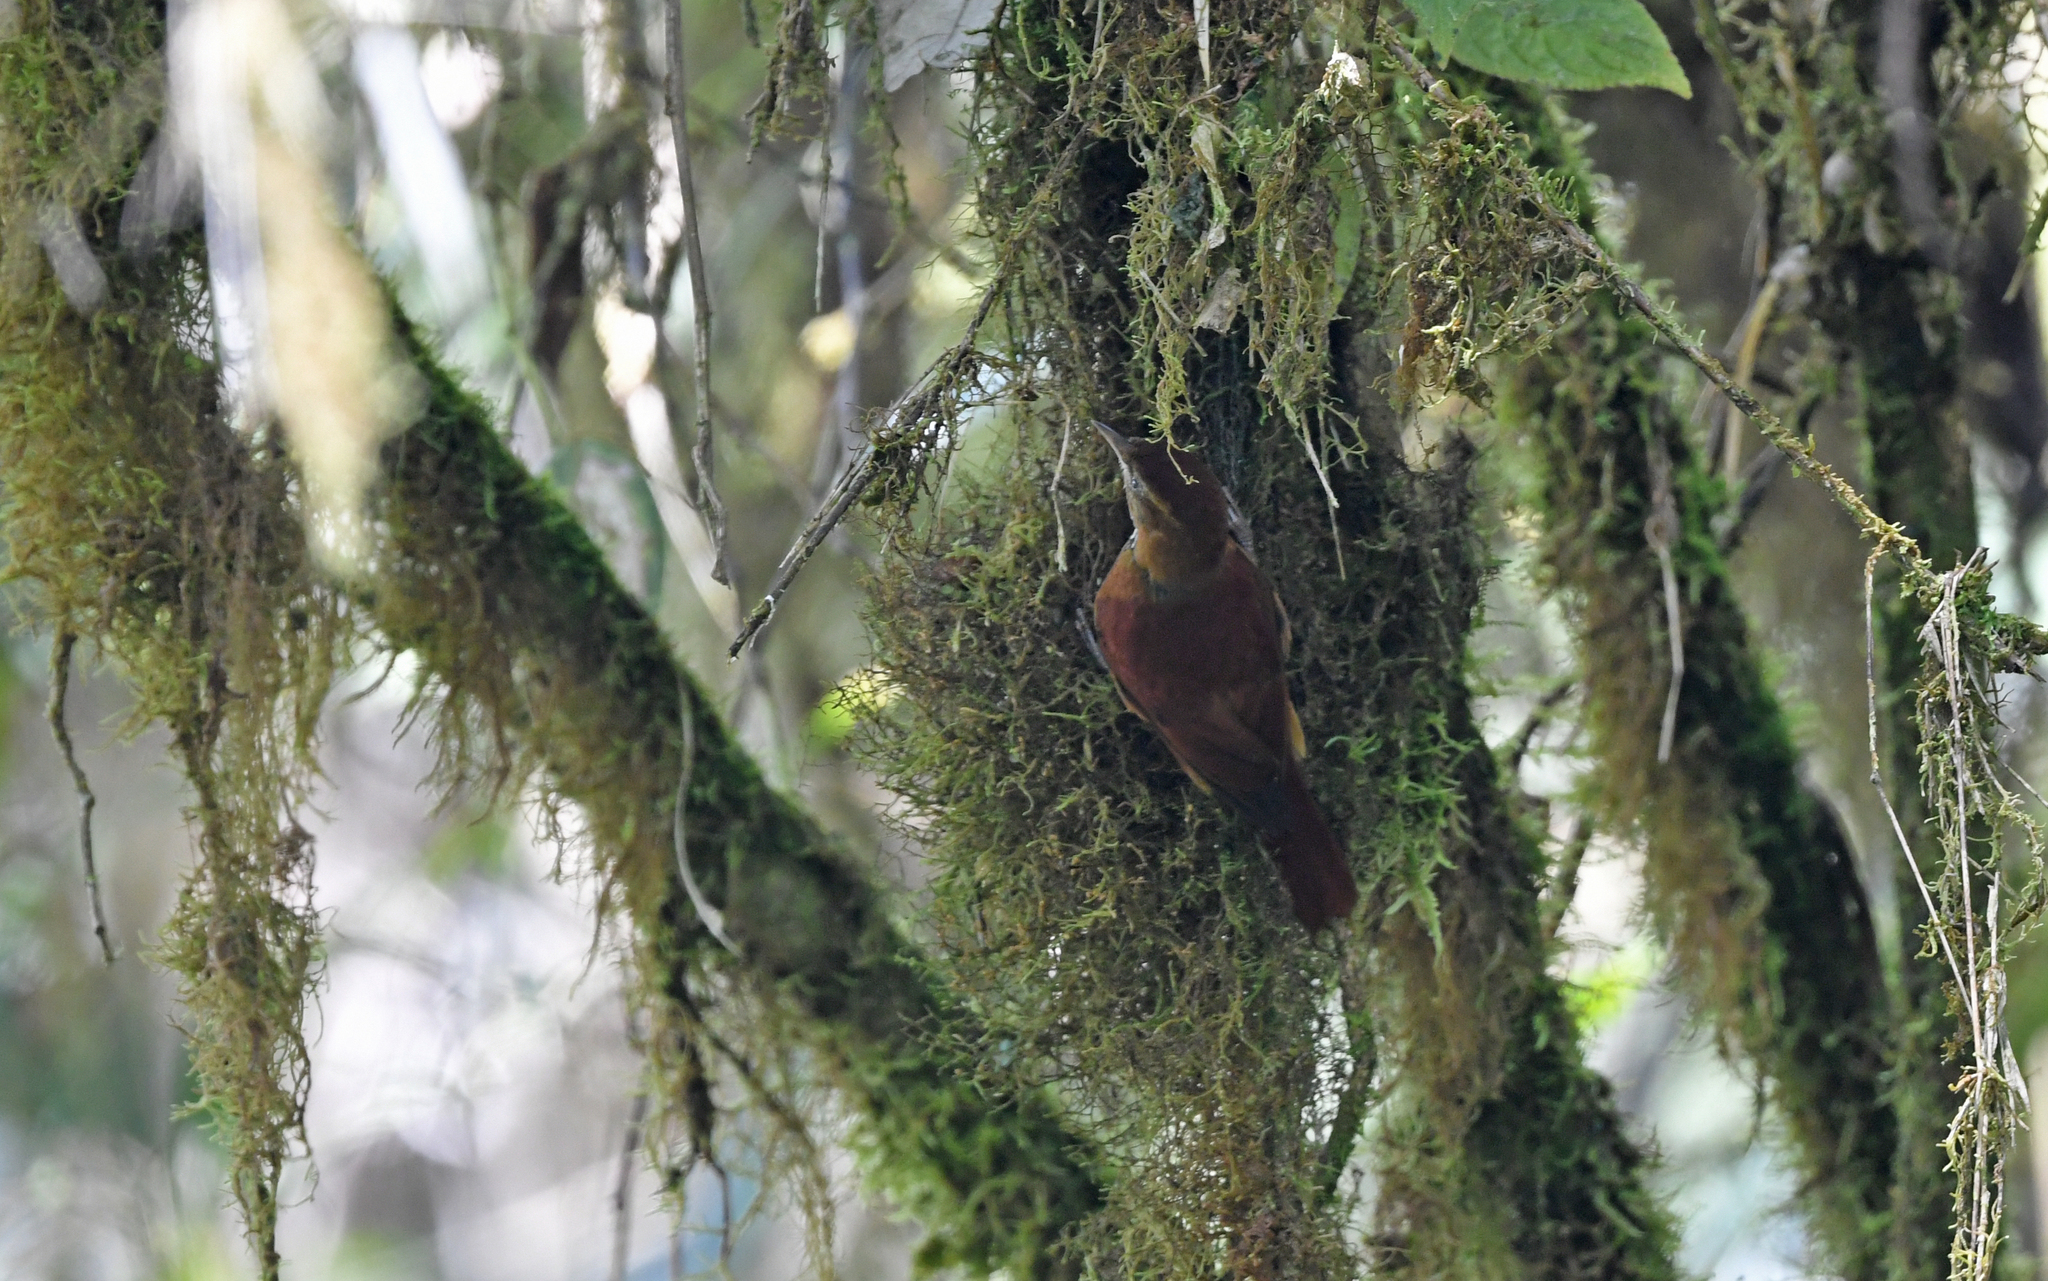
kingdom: Animalia
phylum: Chordata
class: Aves
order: Passeriformes
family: Furnariidae
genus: Margarornis
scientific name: Margarornis stellatus
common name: Star-chested treerunner
